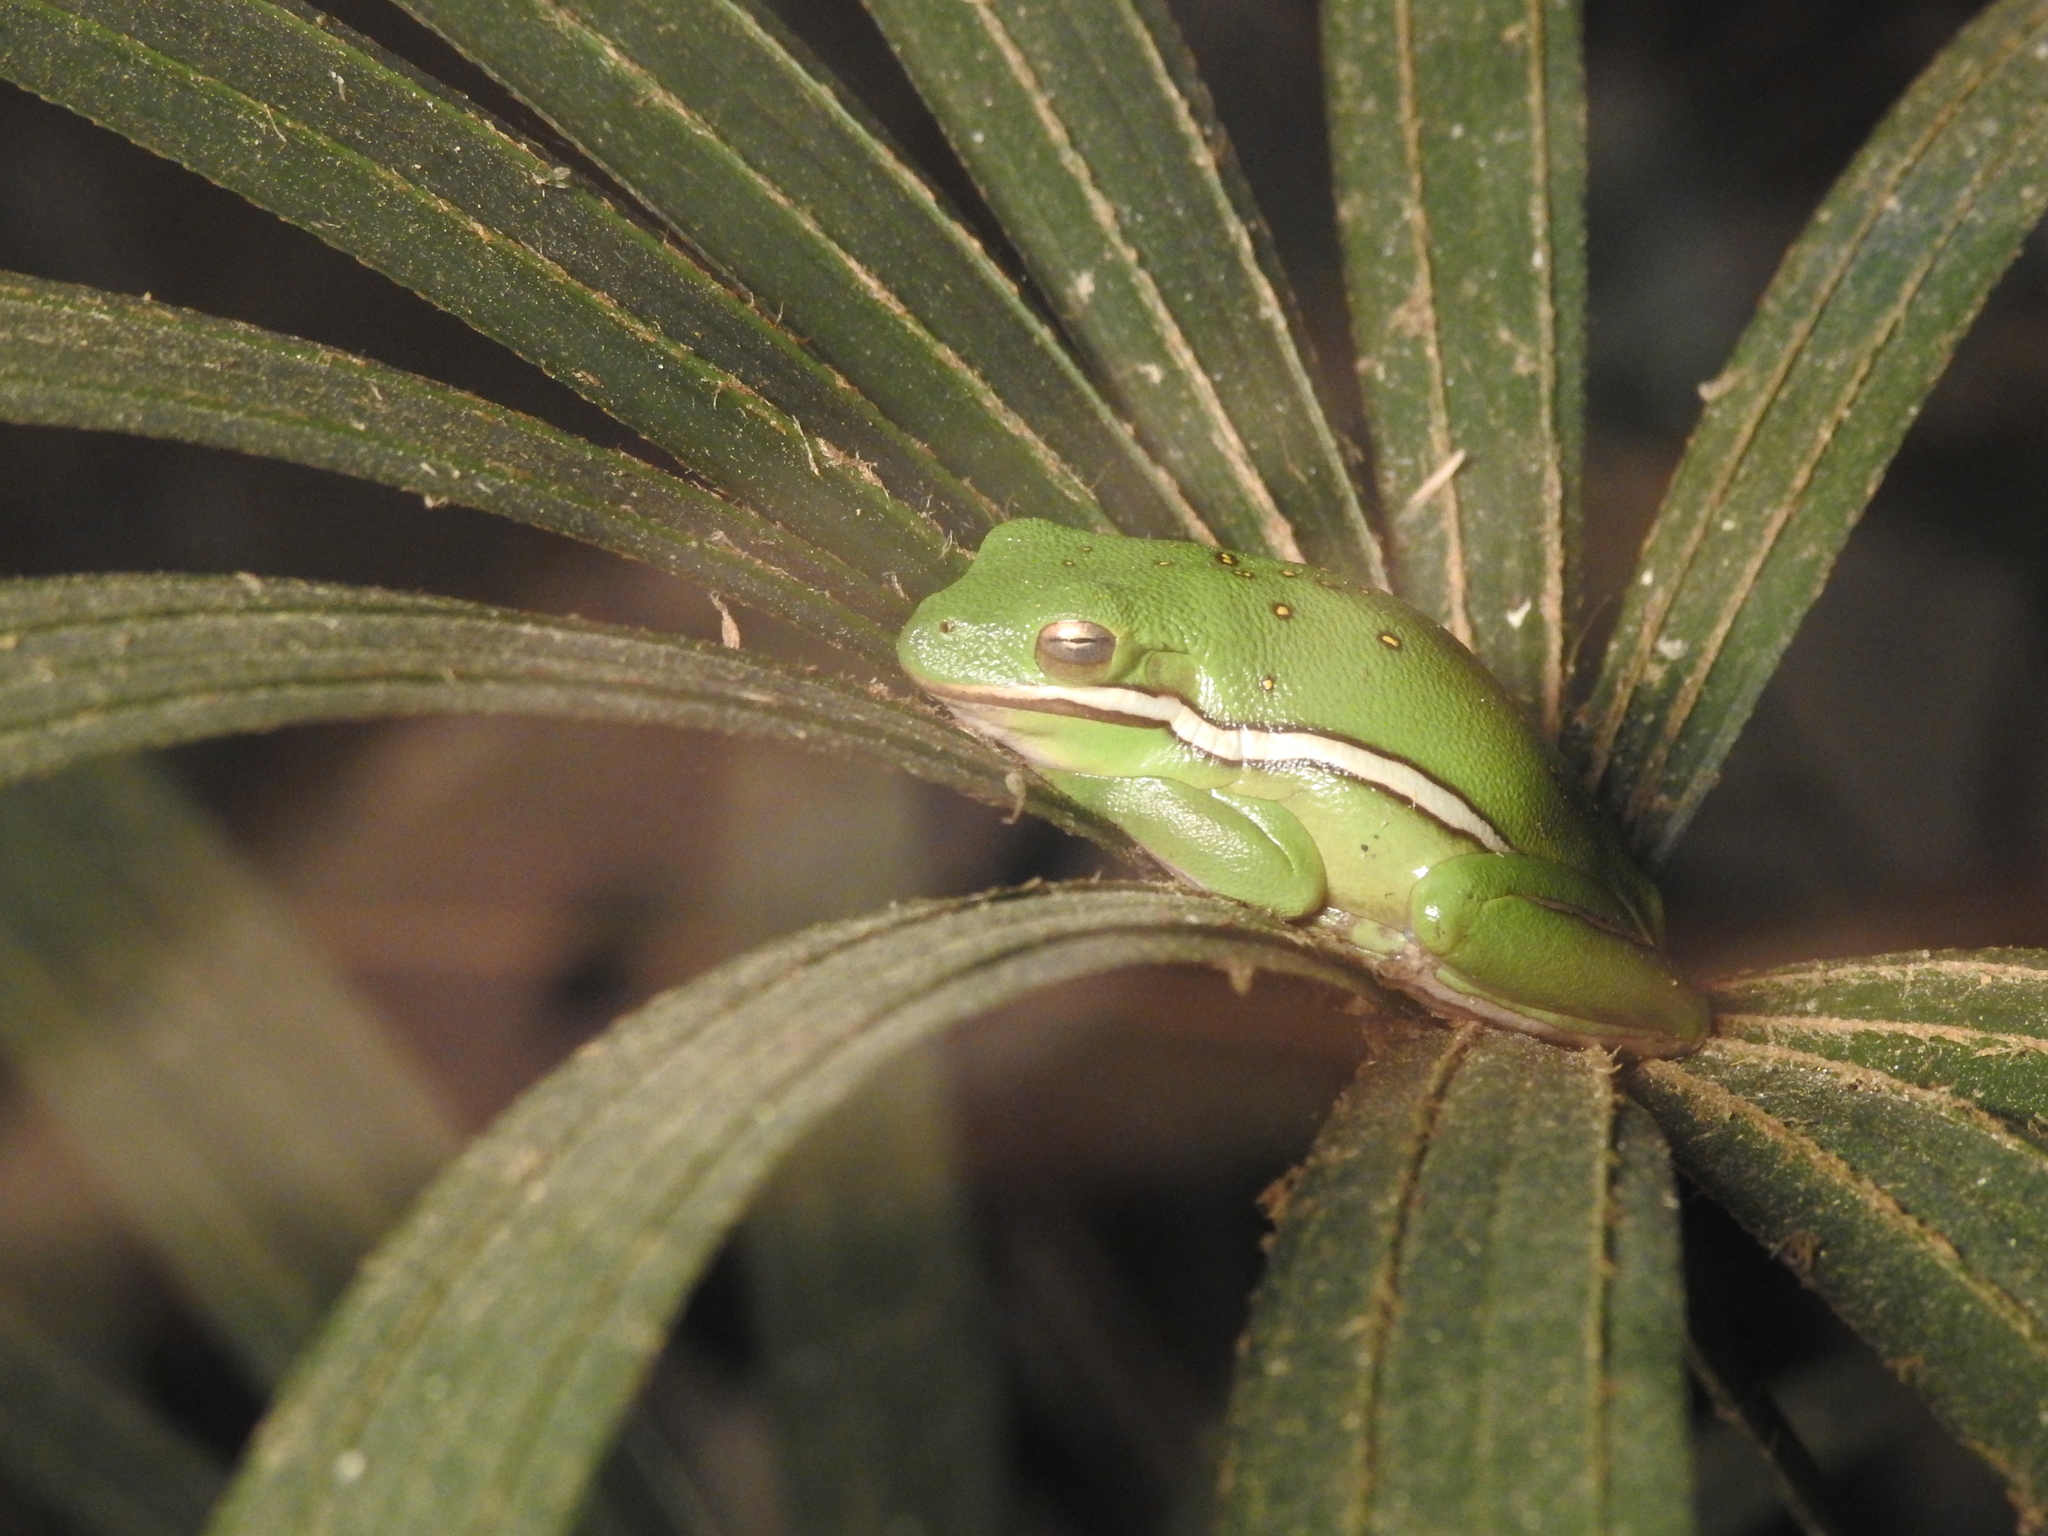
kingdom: Animalia
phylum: Chordata
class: Amphibia
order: Anura
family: Hylidae
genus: Dryophytes
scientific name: Dryophytes cinereus
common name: Green treefrog
